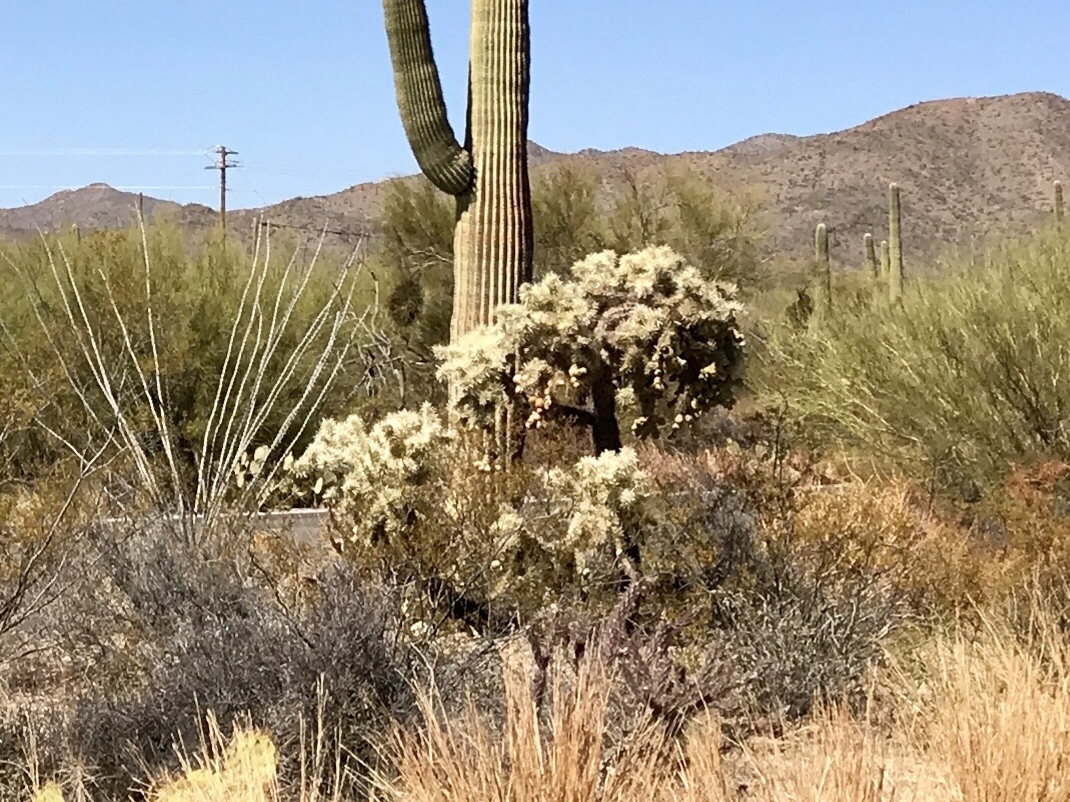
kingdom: Plantae
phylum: Tracheophyta
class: Magnoliopsida
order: Caryophyllales
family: Cactaceae
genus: Cylindropuntia
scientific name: Cylindropuntia fulgida
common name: Jumping cholla
